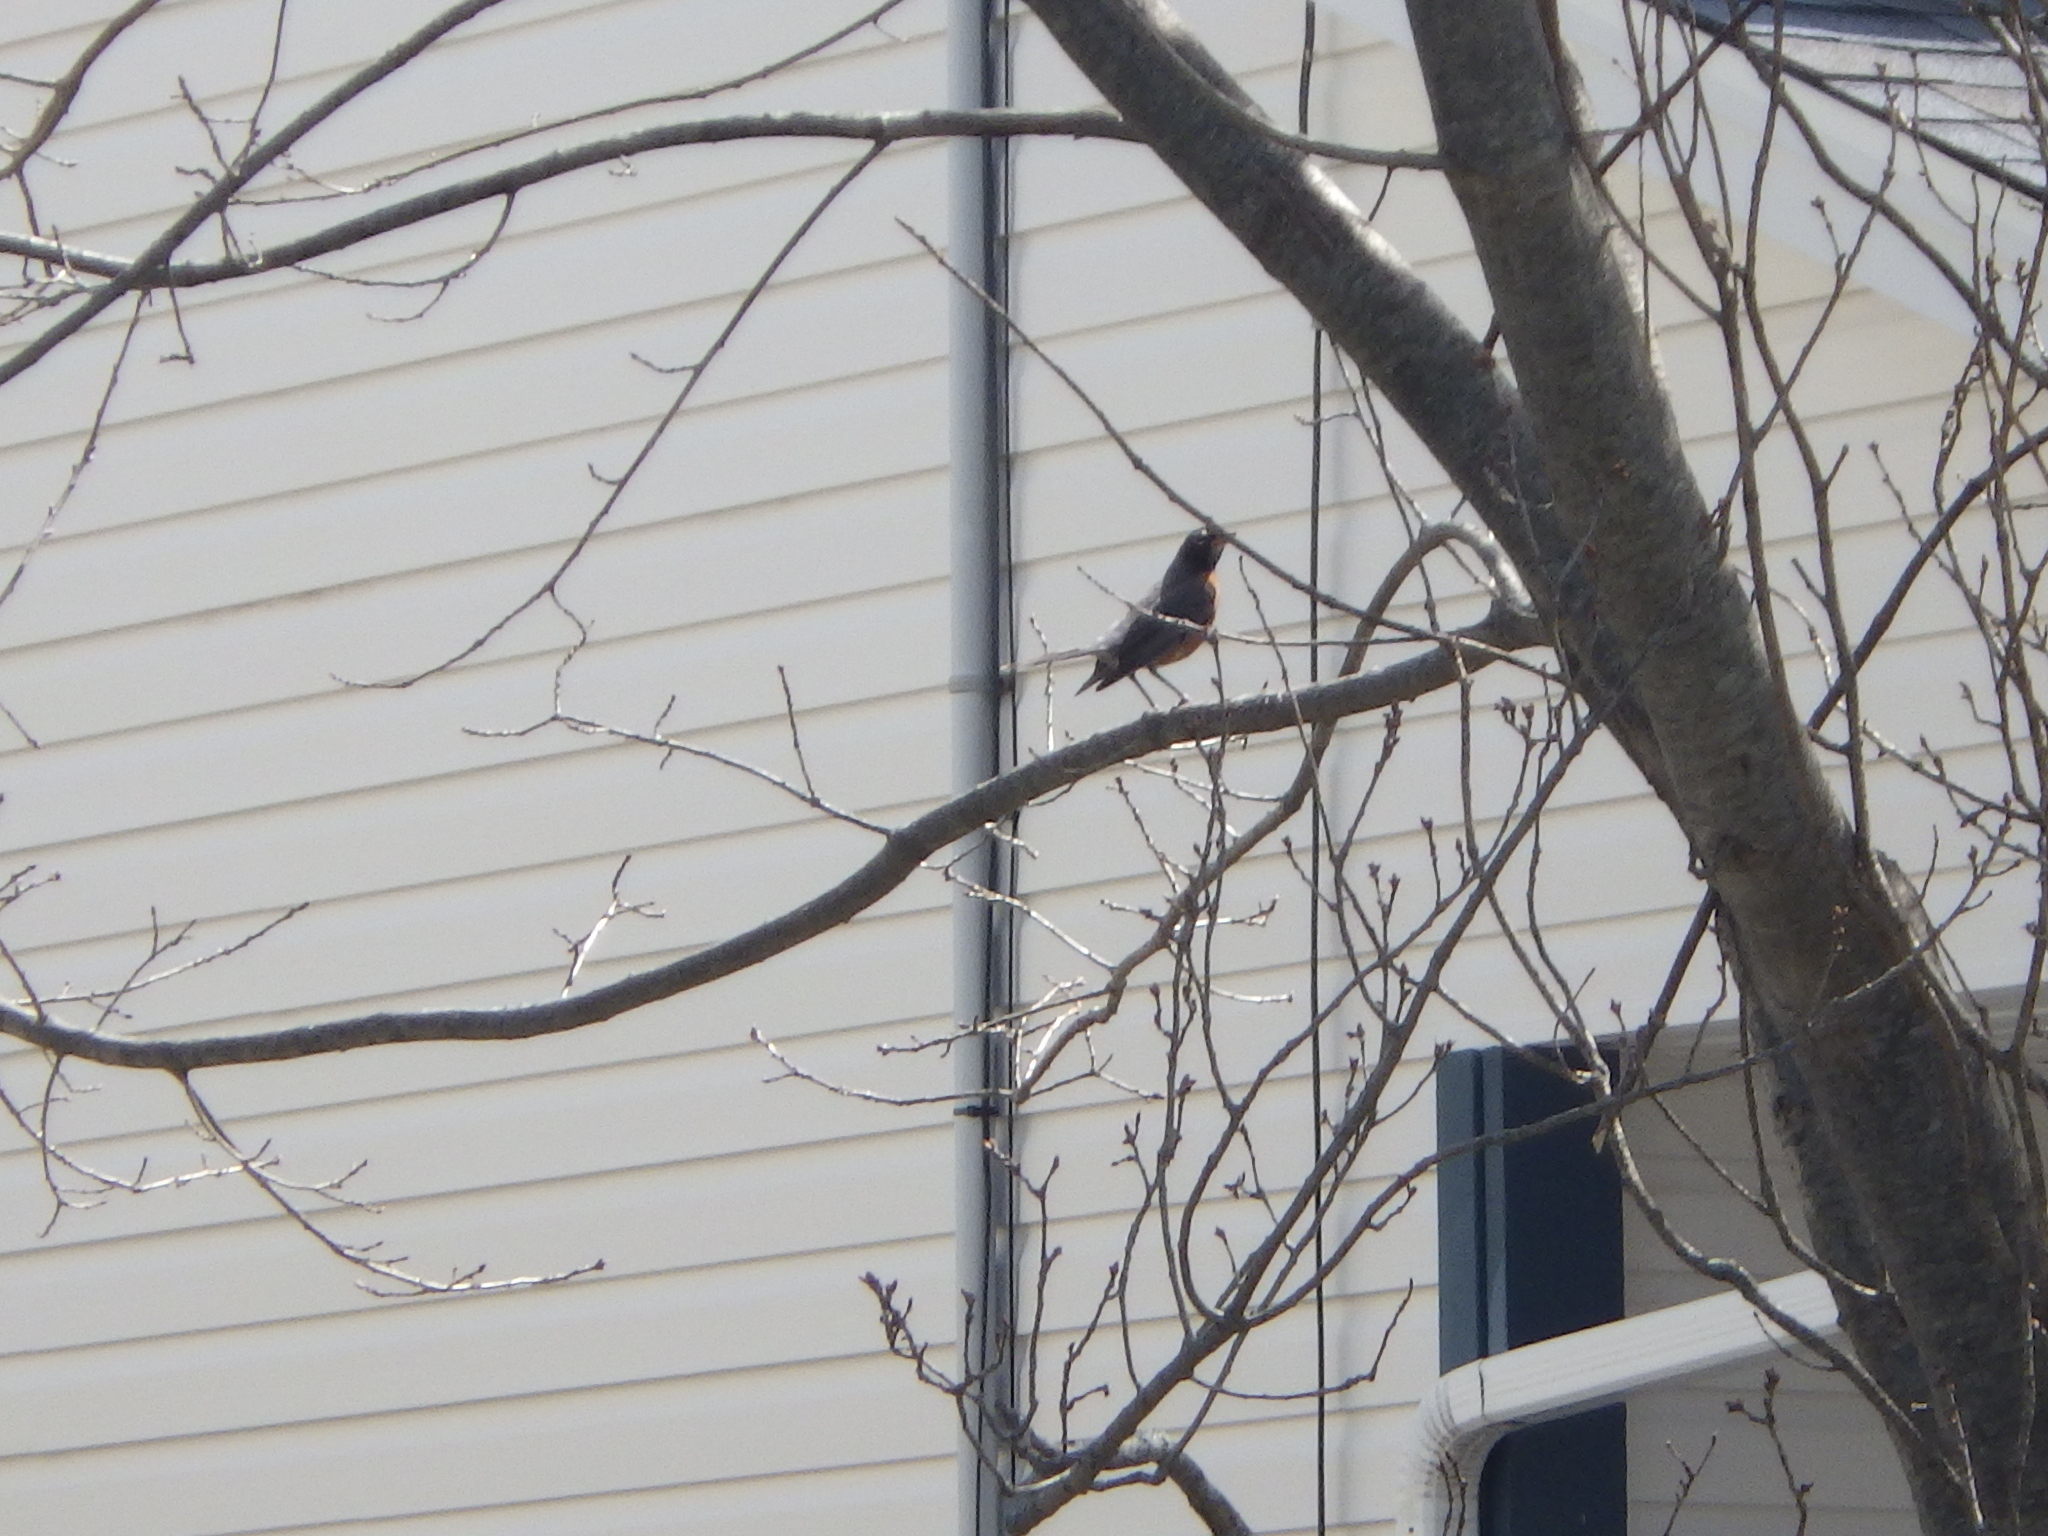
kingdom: Animalia
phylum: Chordata
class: Aves
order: Passeriformes
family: Turdidae
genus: Turdus
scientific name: Turdus migratorius
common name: American robin
